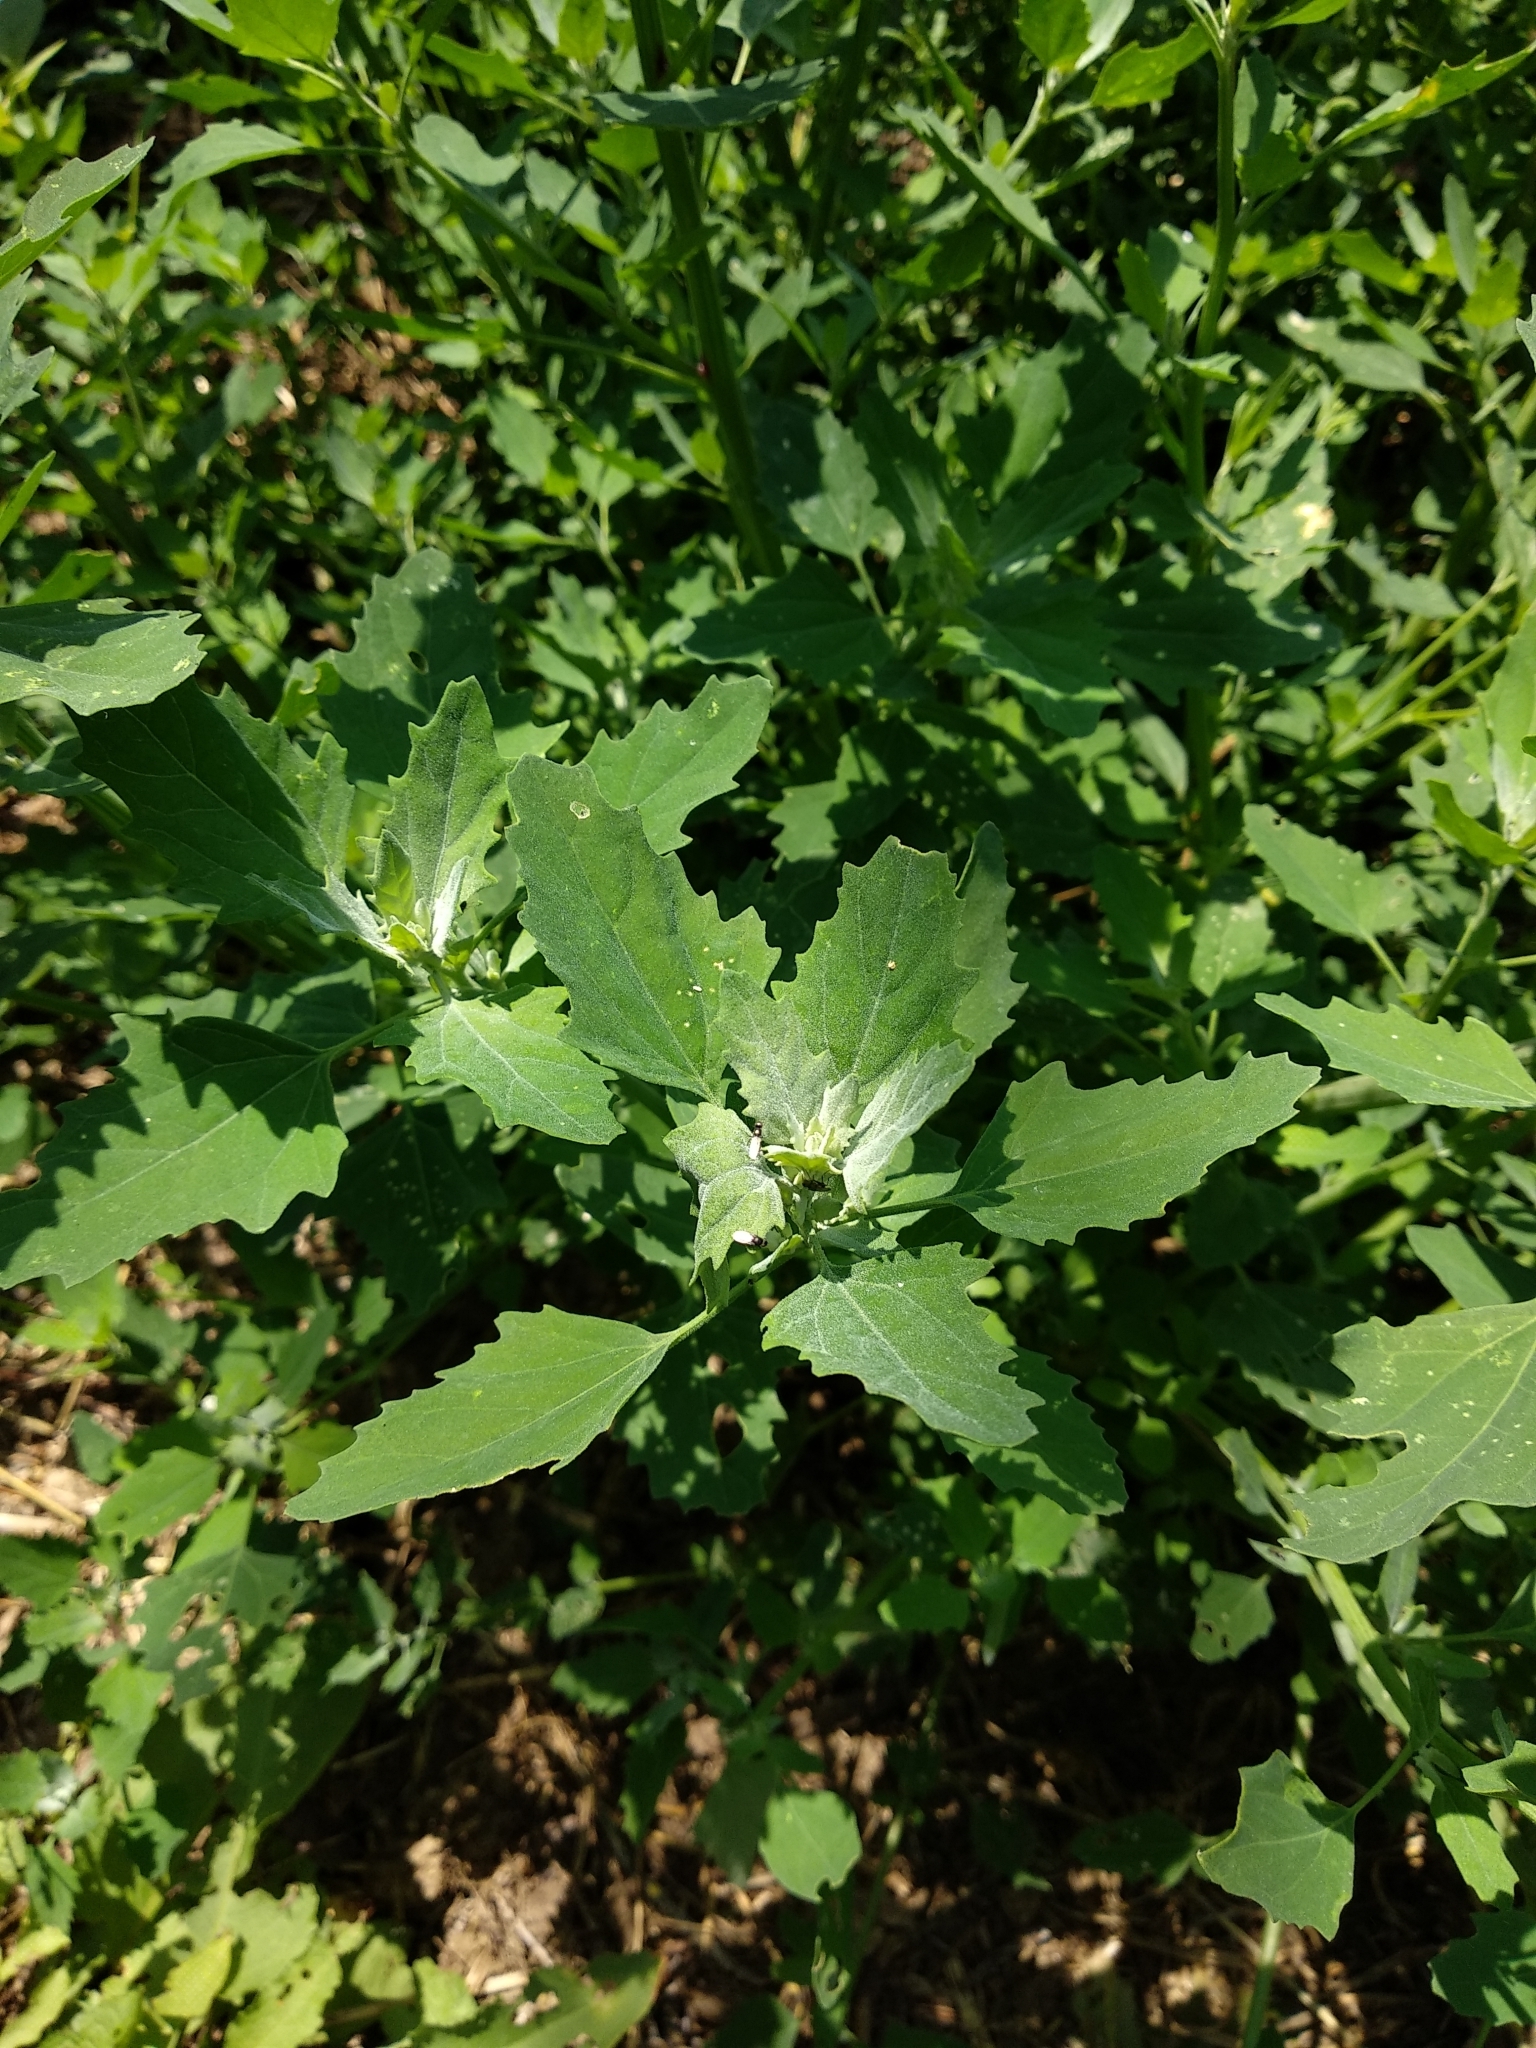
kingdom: Plantae
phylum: Tracheophyta
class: Magnoliopsida
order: Caryophyllales
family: Amaranthaceae
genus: Chenopodium
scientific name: Chenopodium album
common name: Fat-hen
